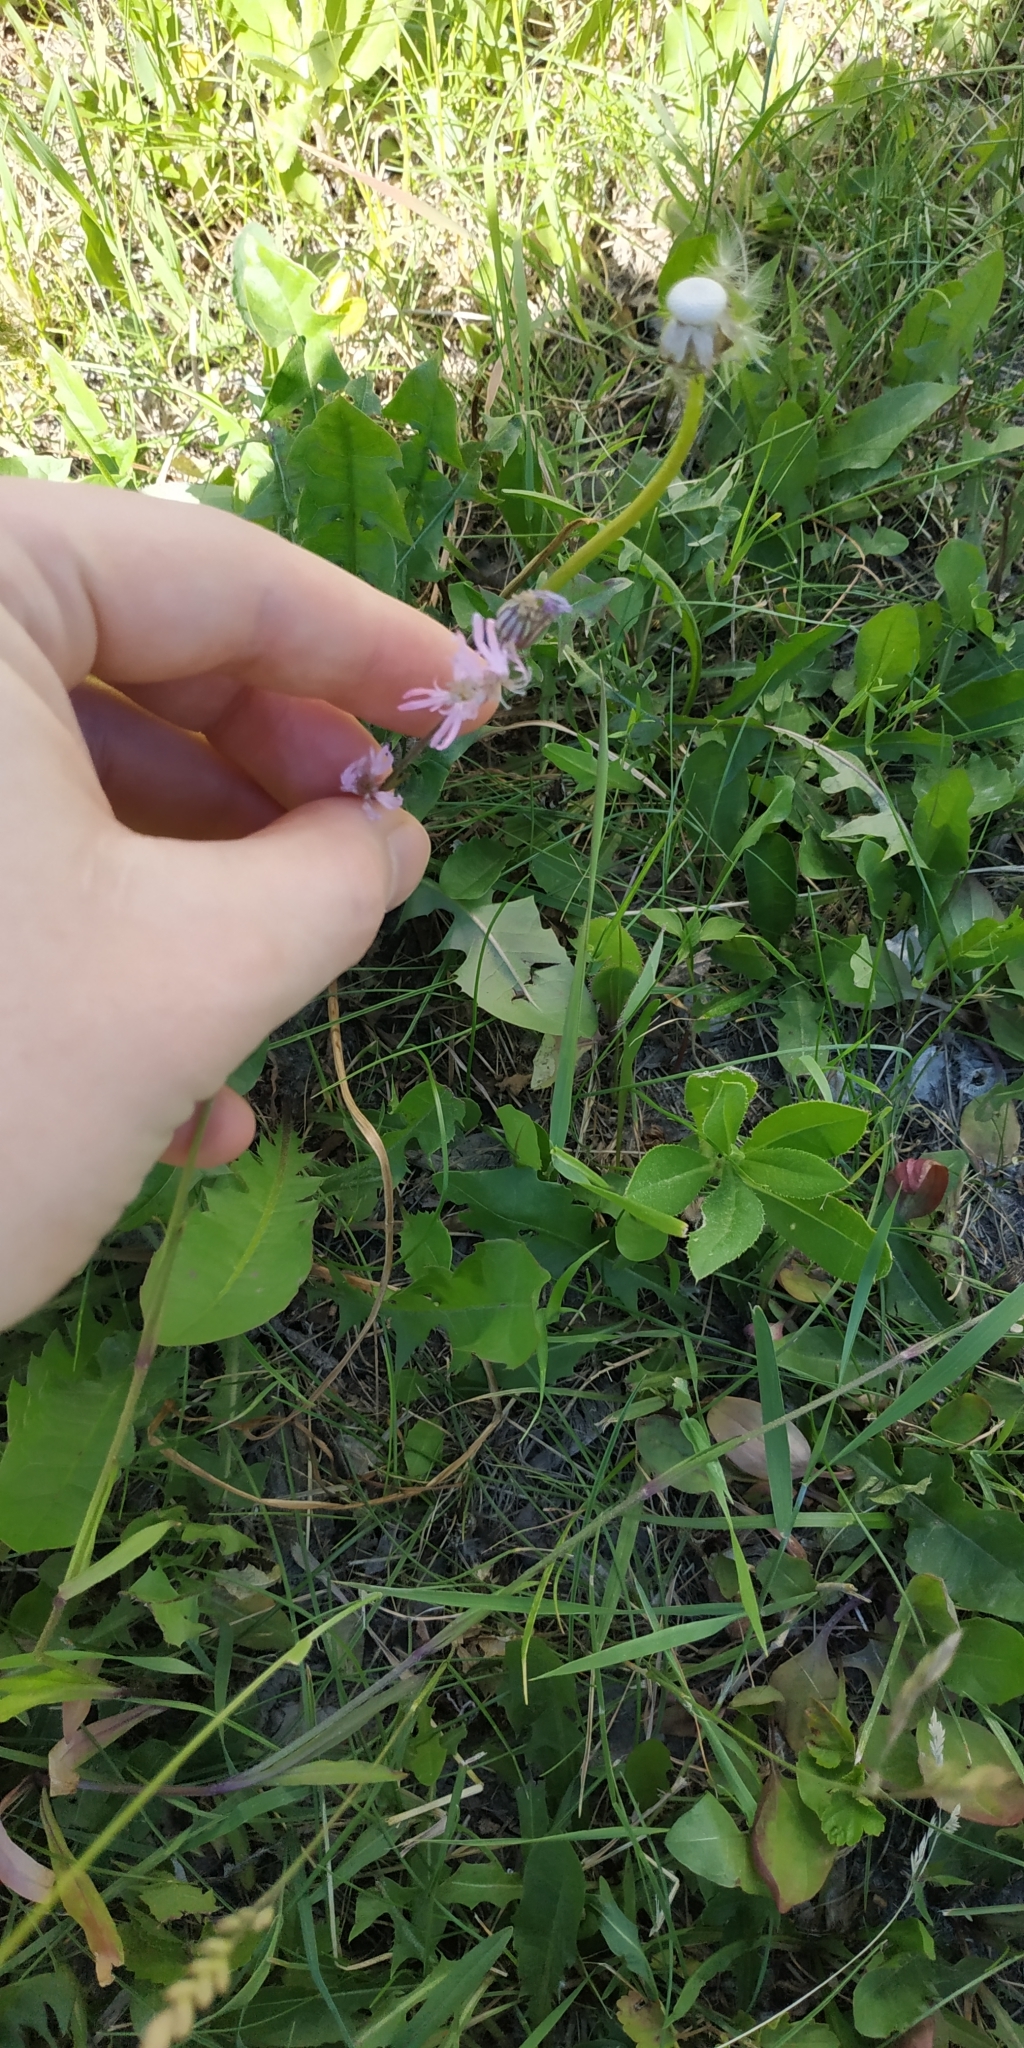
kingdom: Plantae
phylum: Tracheophyta
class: Magnoliopsida
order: Caryophyllales
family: Caryophyllaceae
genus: Silene
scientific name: Silene flos-cuculi
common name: Ragged-robin
